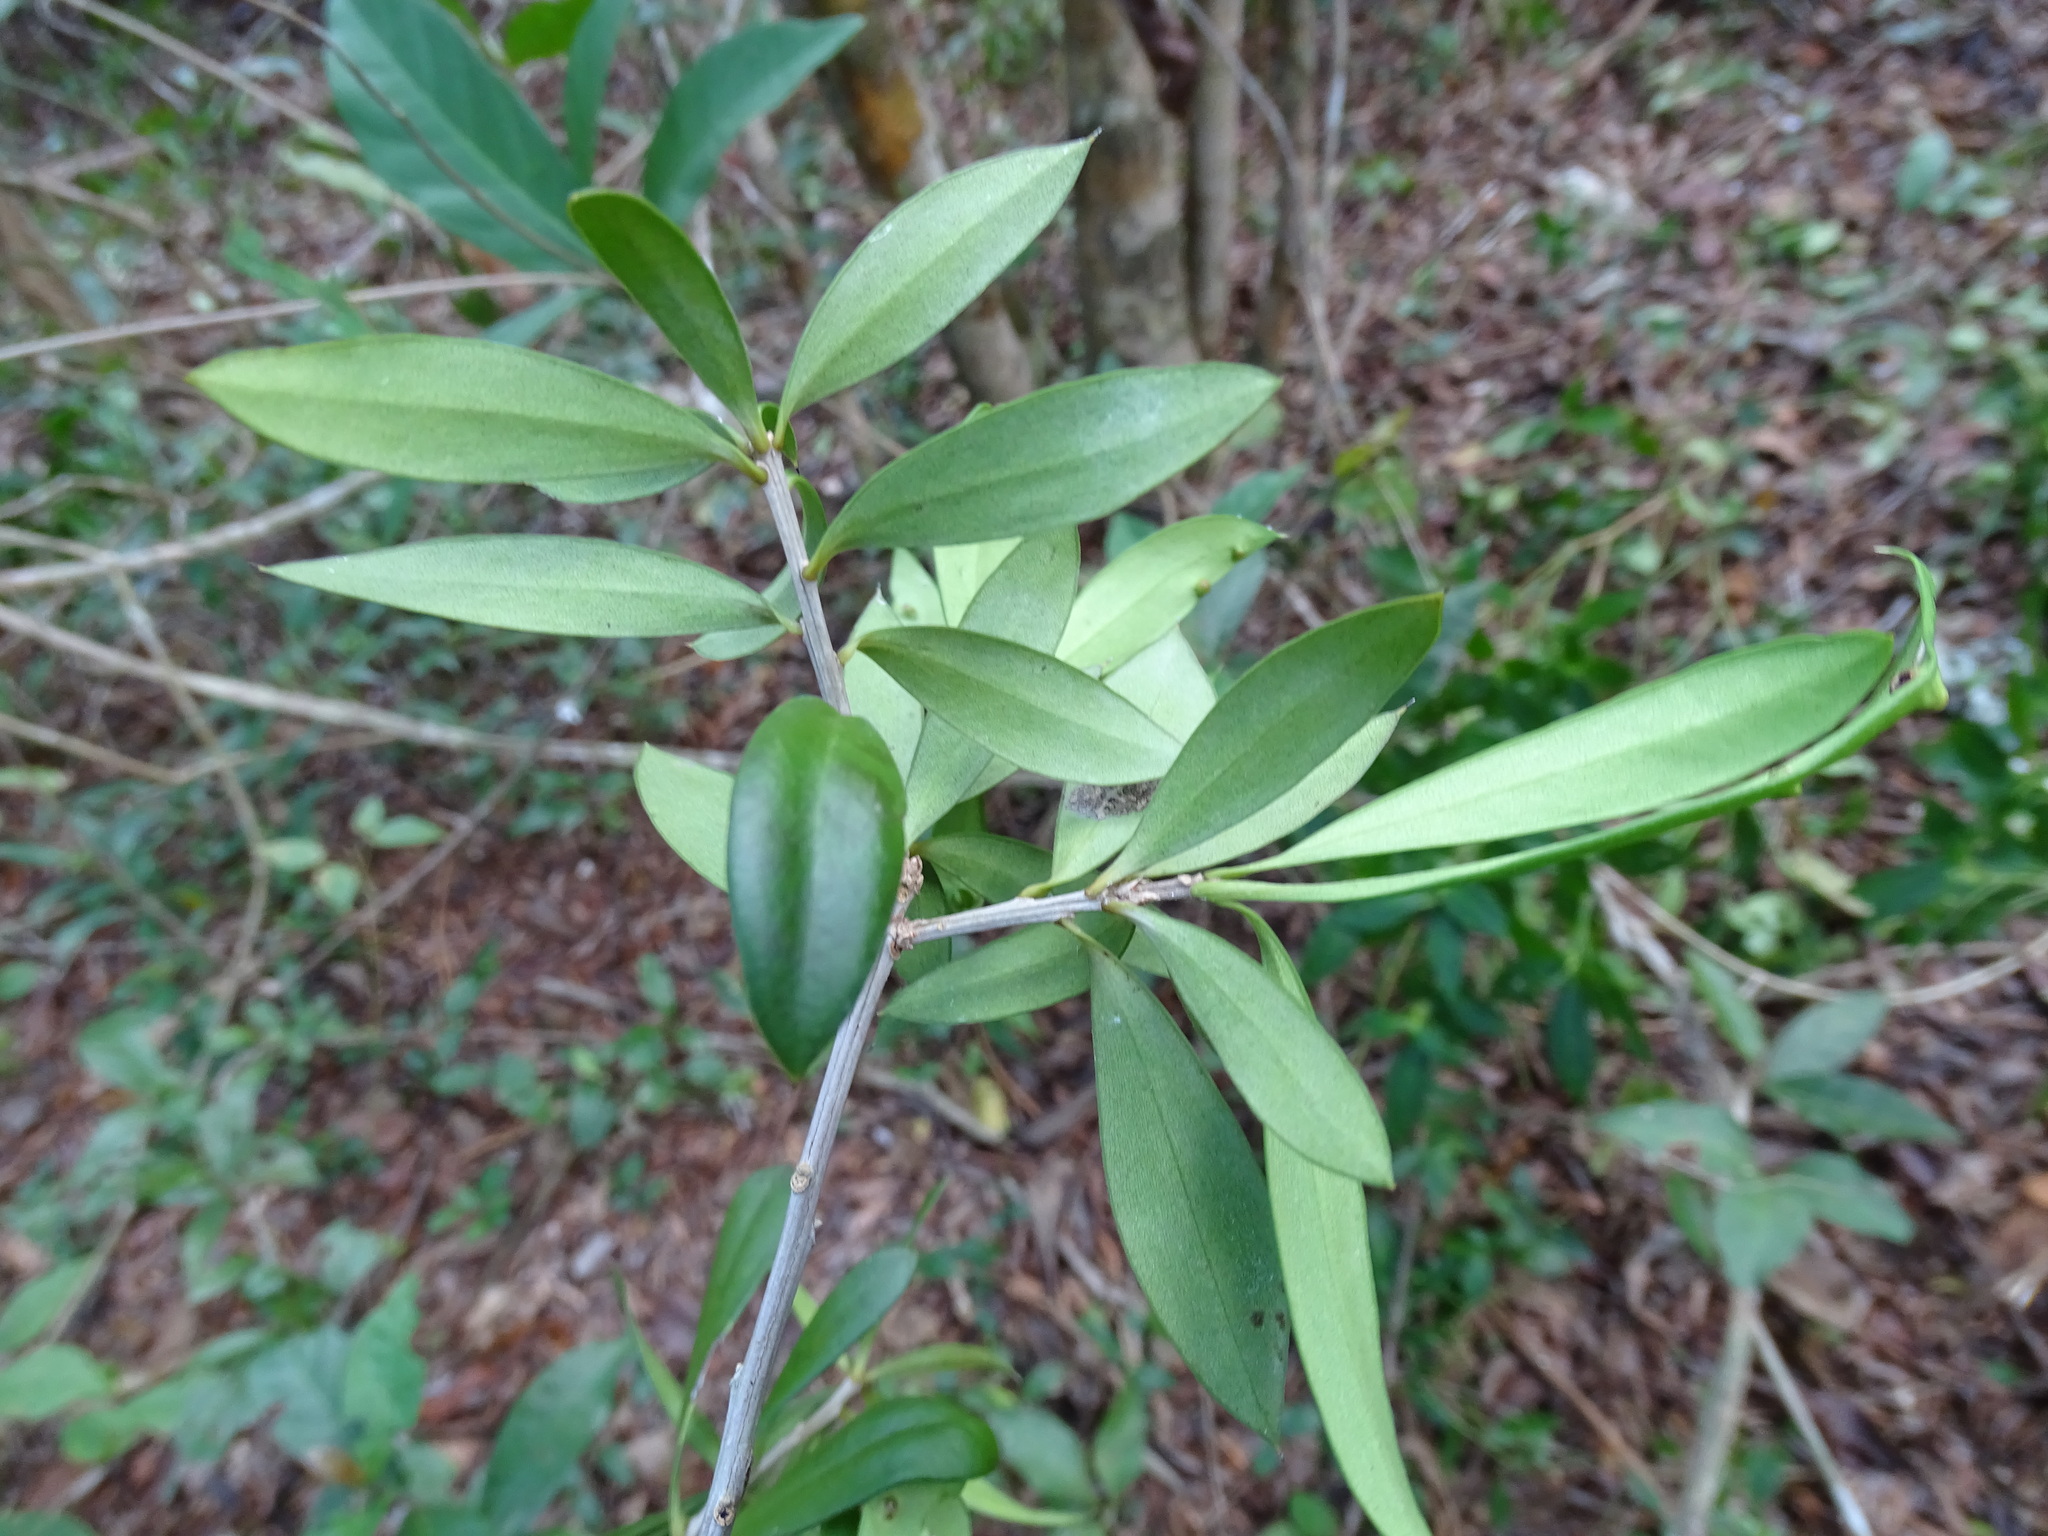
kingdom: Plantae
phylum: Tracheophyta
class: Magnoliopsida
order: Ericales
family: Primulaceae
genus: Bonellia
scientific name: Bonellia macrocarpa
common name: Primrose
